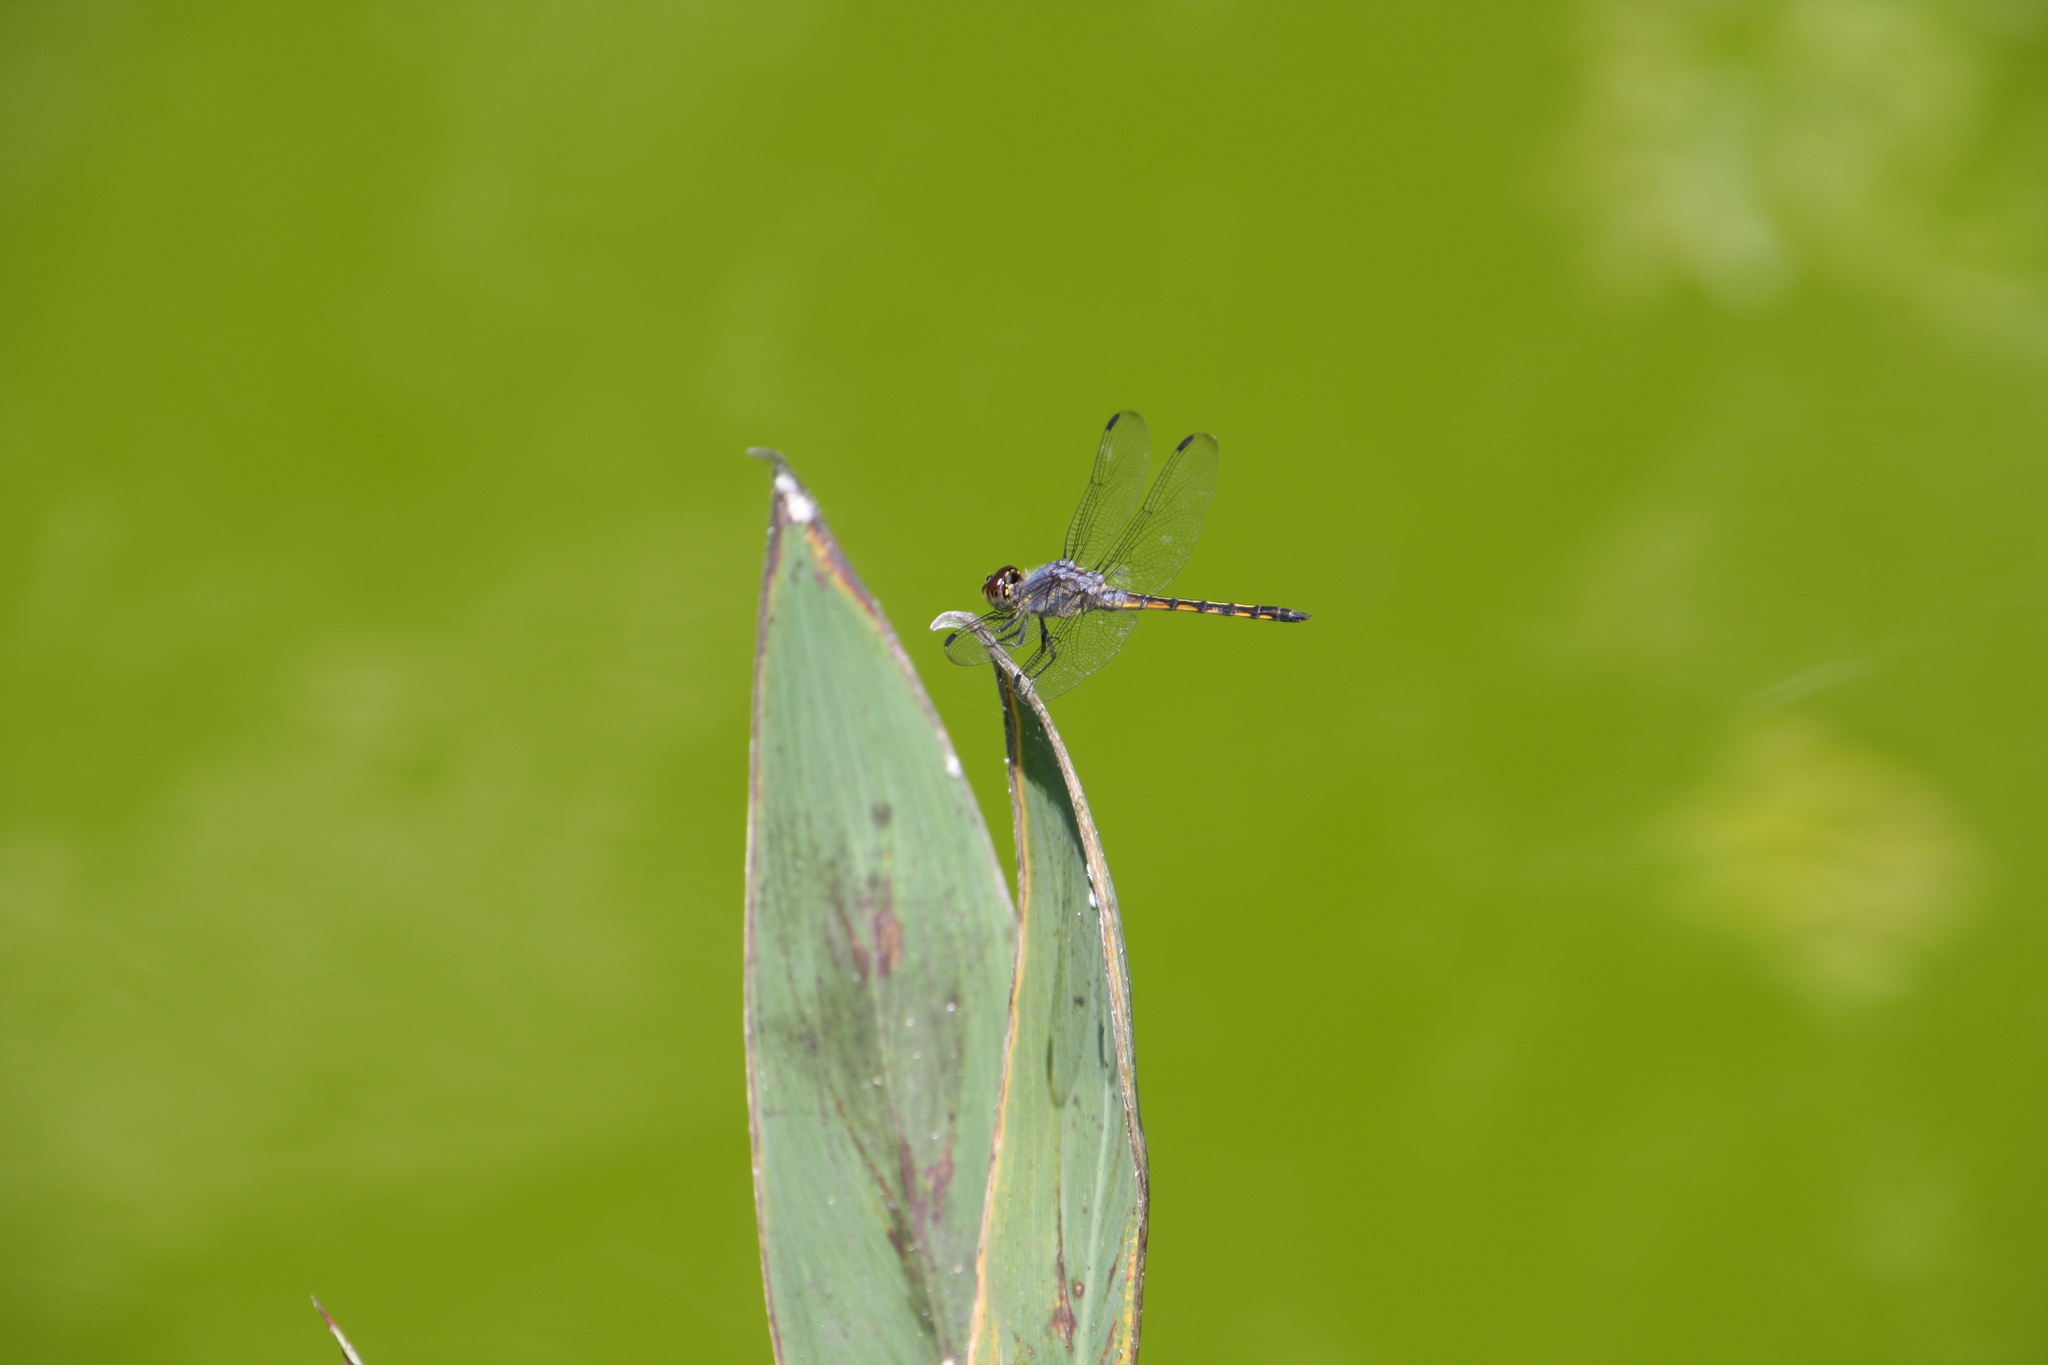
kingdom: Animalia
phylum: Arthropoda
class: Insecta
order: Odonata
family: Libellulidae
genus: Potamarcha
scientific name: Potamarcha congener
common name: Blue chaser
